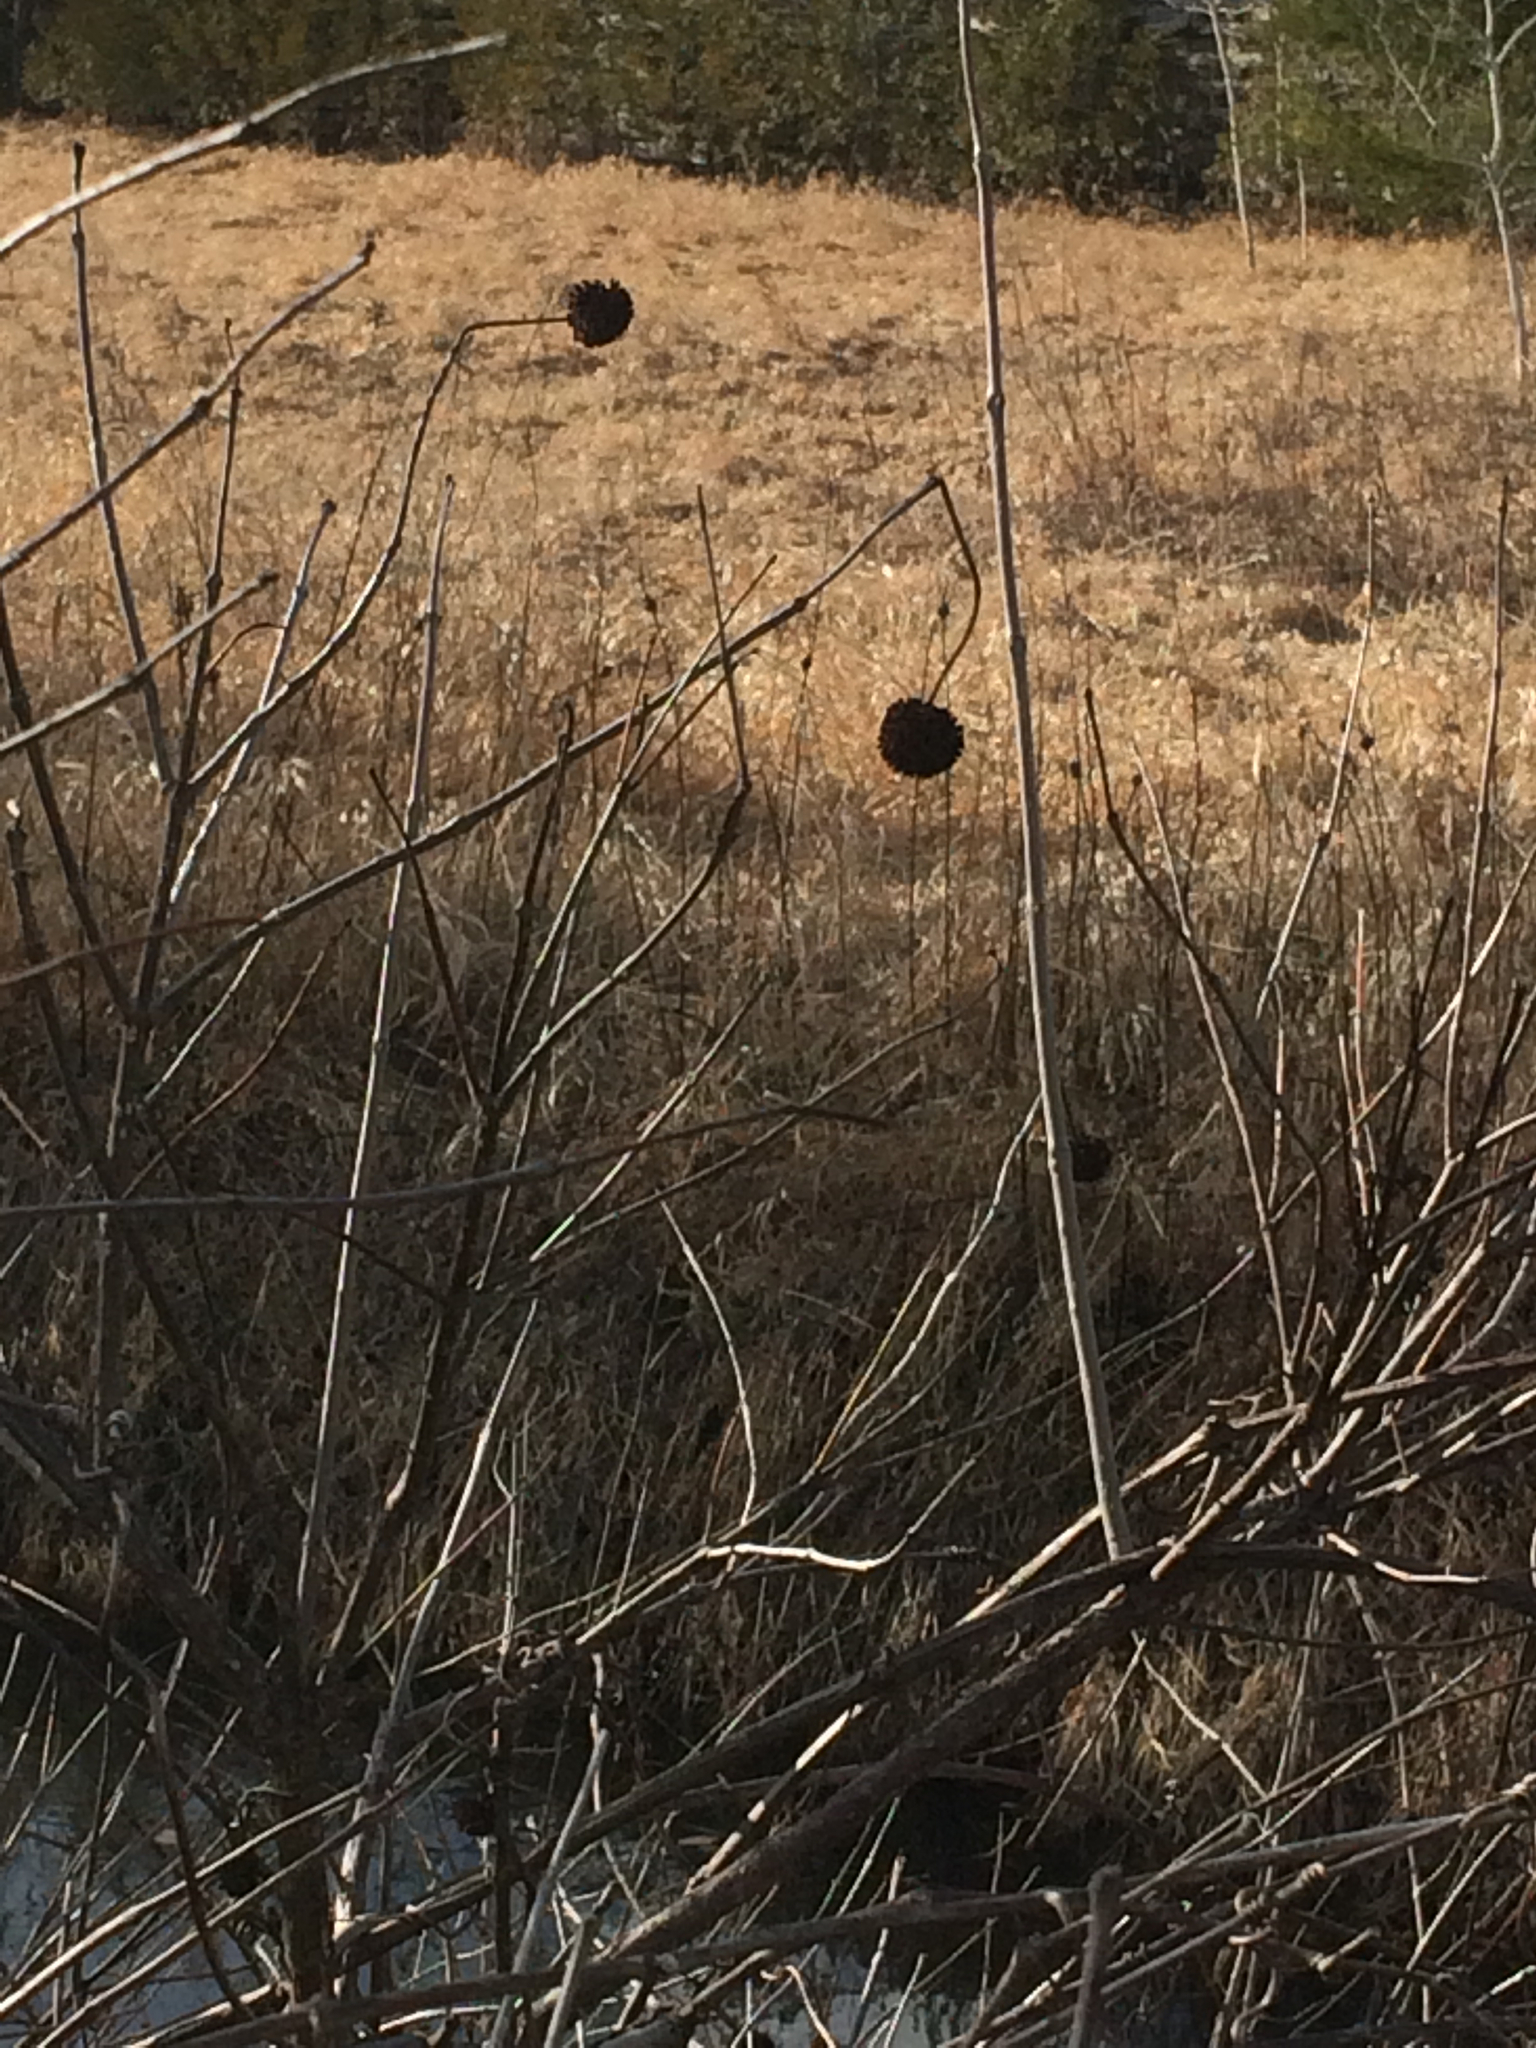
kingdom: Plantae
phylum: Tracheophyta
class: Magnoliopsida
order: Gentianales
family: Rubiaceae
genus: Cephalanthus
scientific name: Cephalanthus occidentalis
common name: Button-willow
